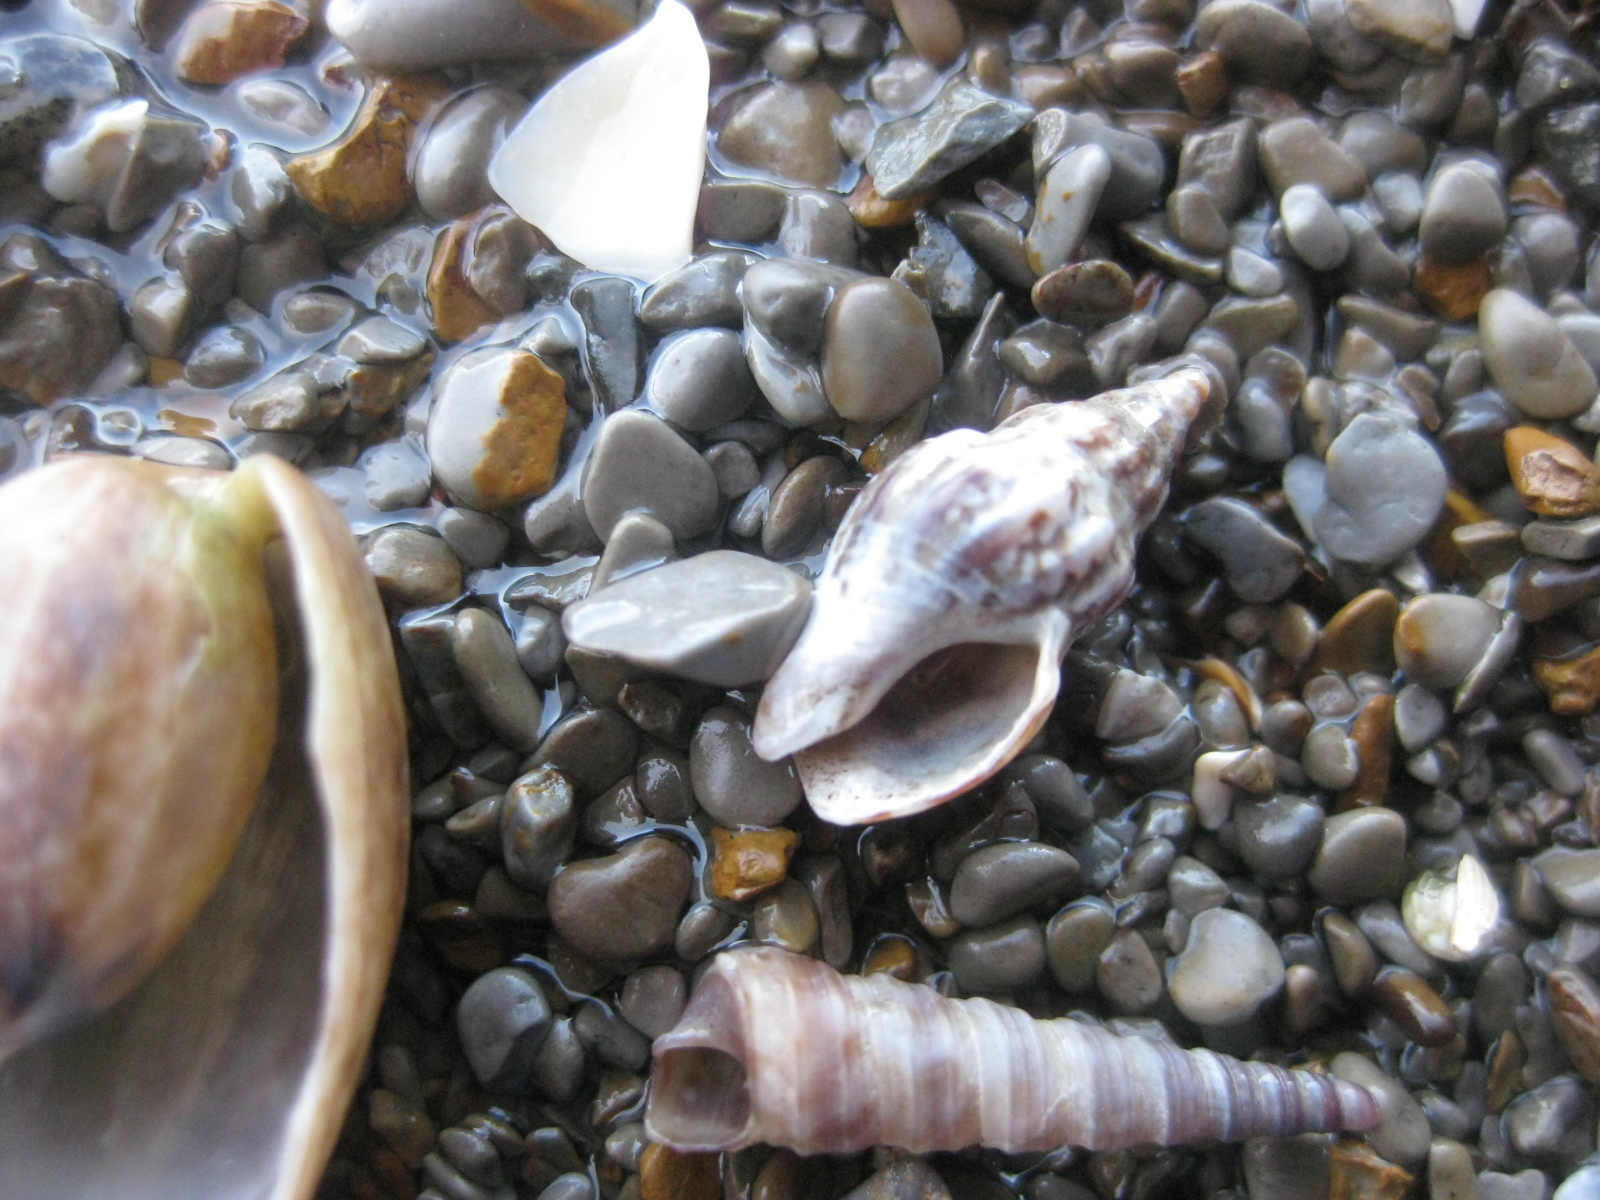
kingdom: Animalia
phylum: Mollusca
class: Gastropoda
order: Neogastropoda
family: Cominellidae
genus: Cominella
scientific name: Cominella quoyana
